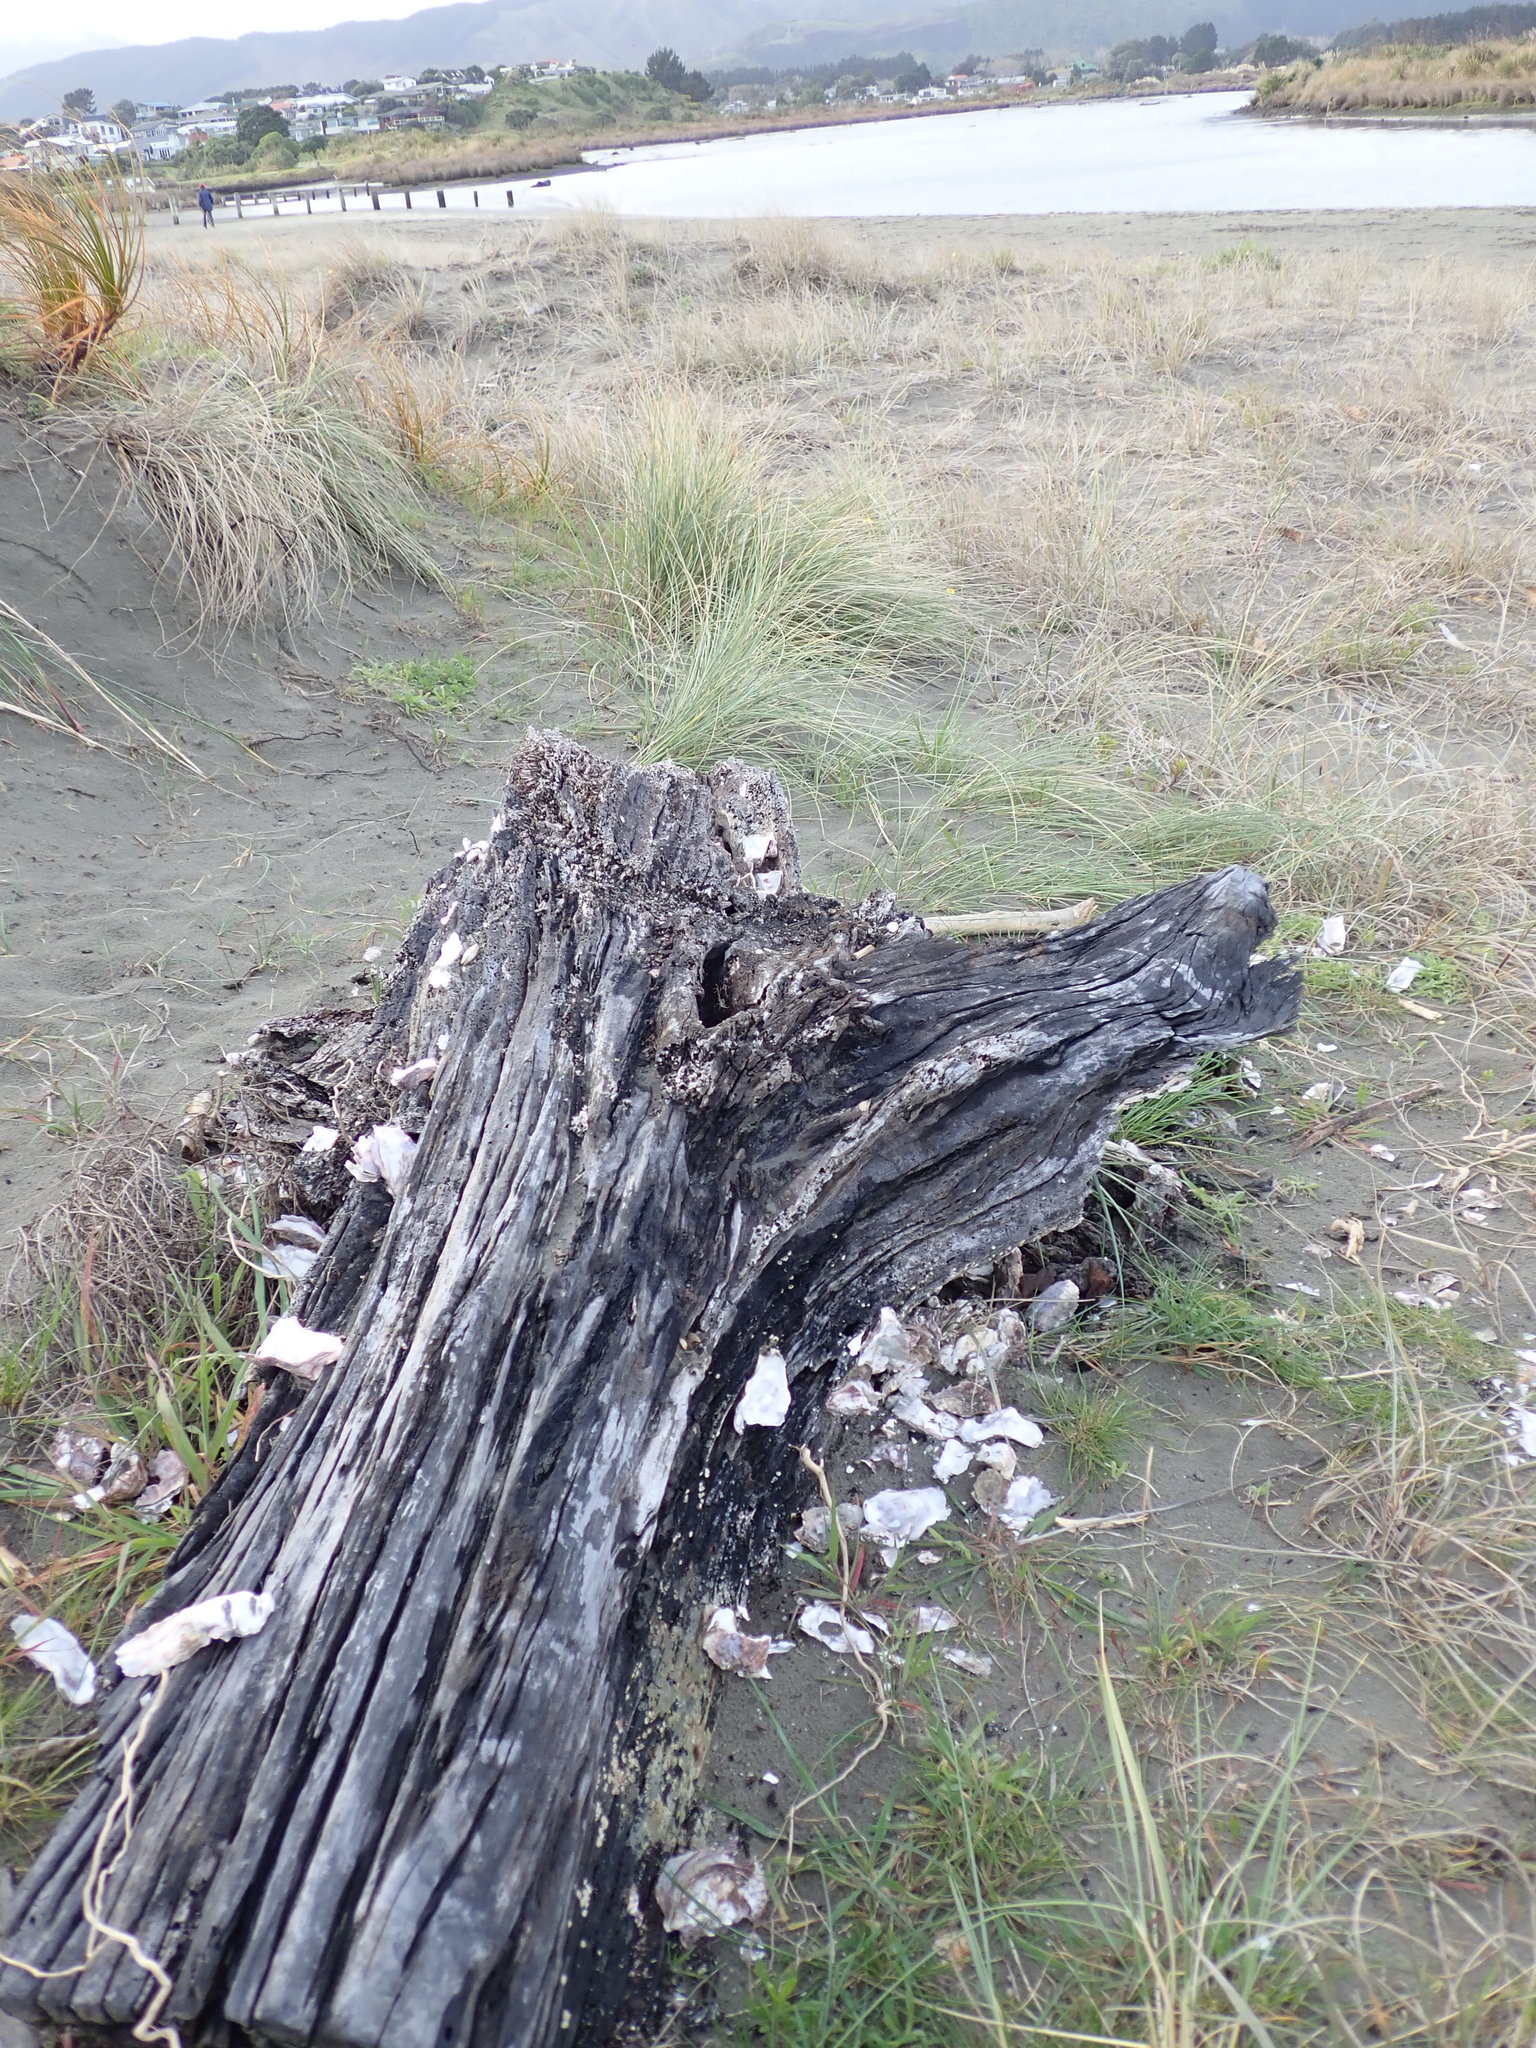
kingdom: Animalia
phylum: Mollusca
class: Bivalvia
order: Ostreida
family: Ostreidae
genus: Magallana
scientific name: Magallana gigas
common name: Pacific oyster
